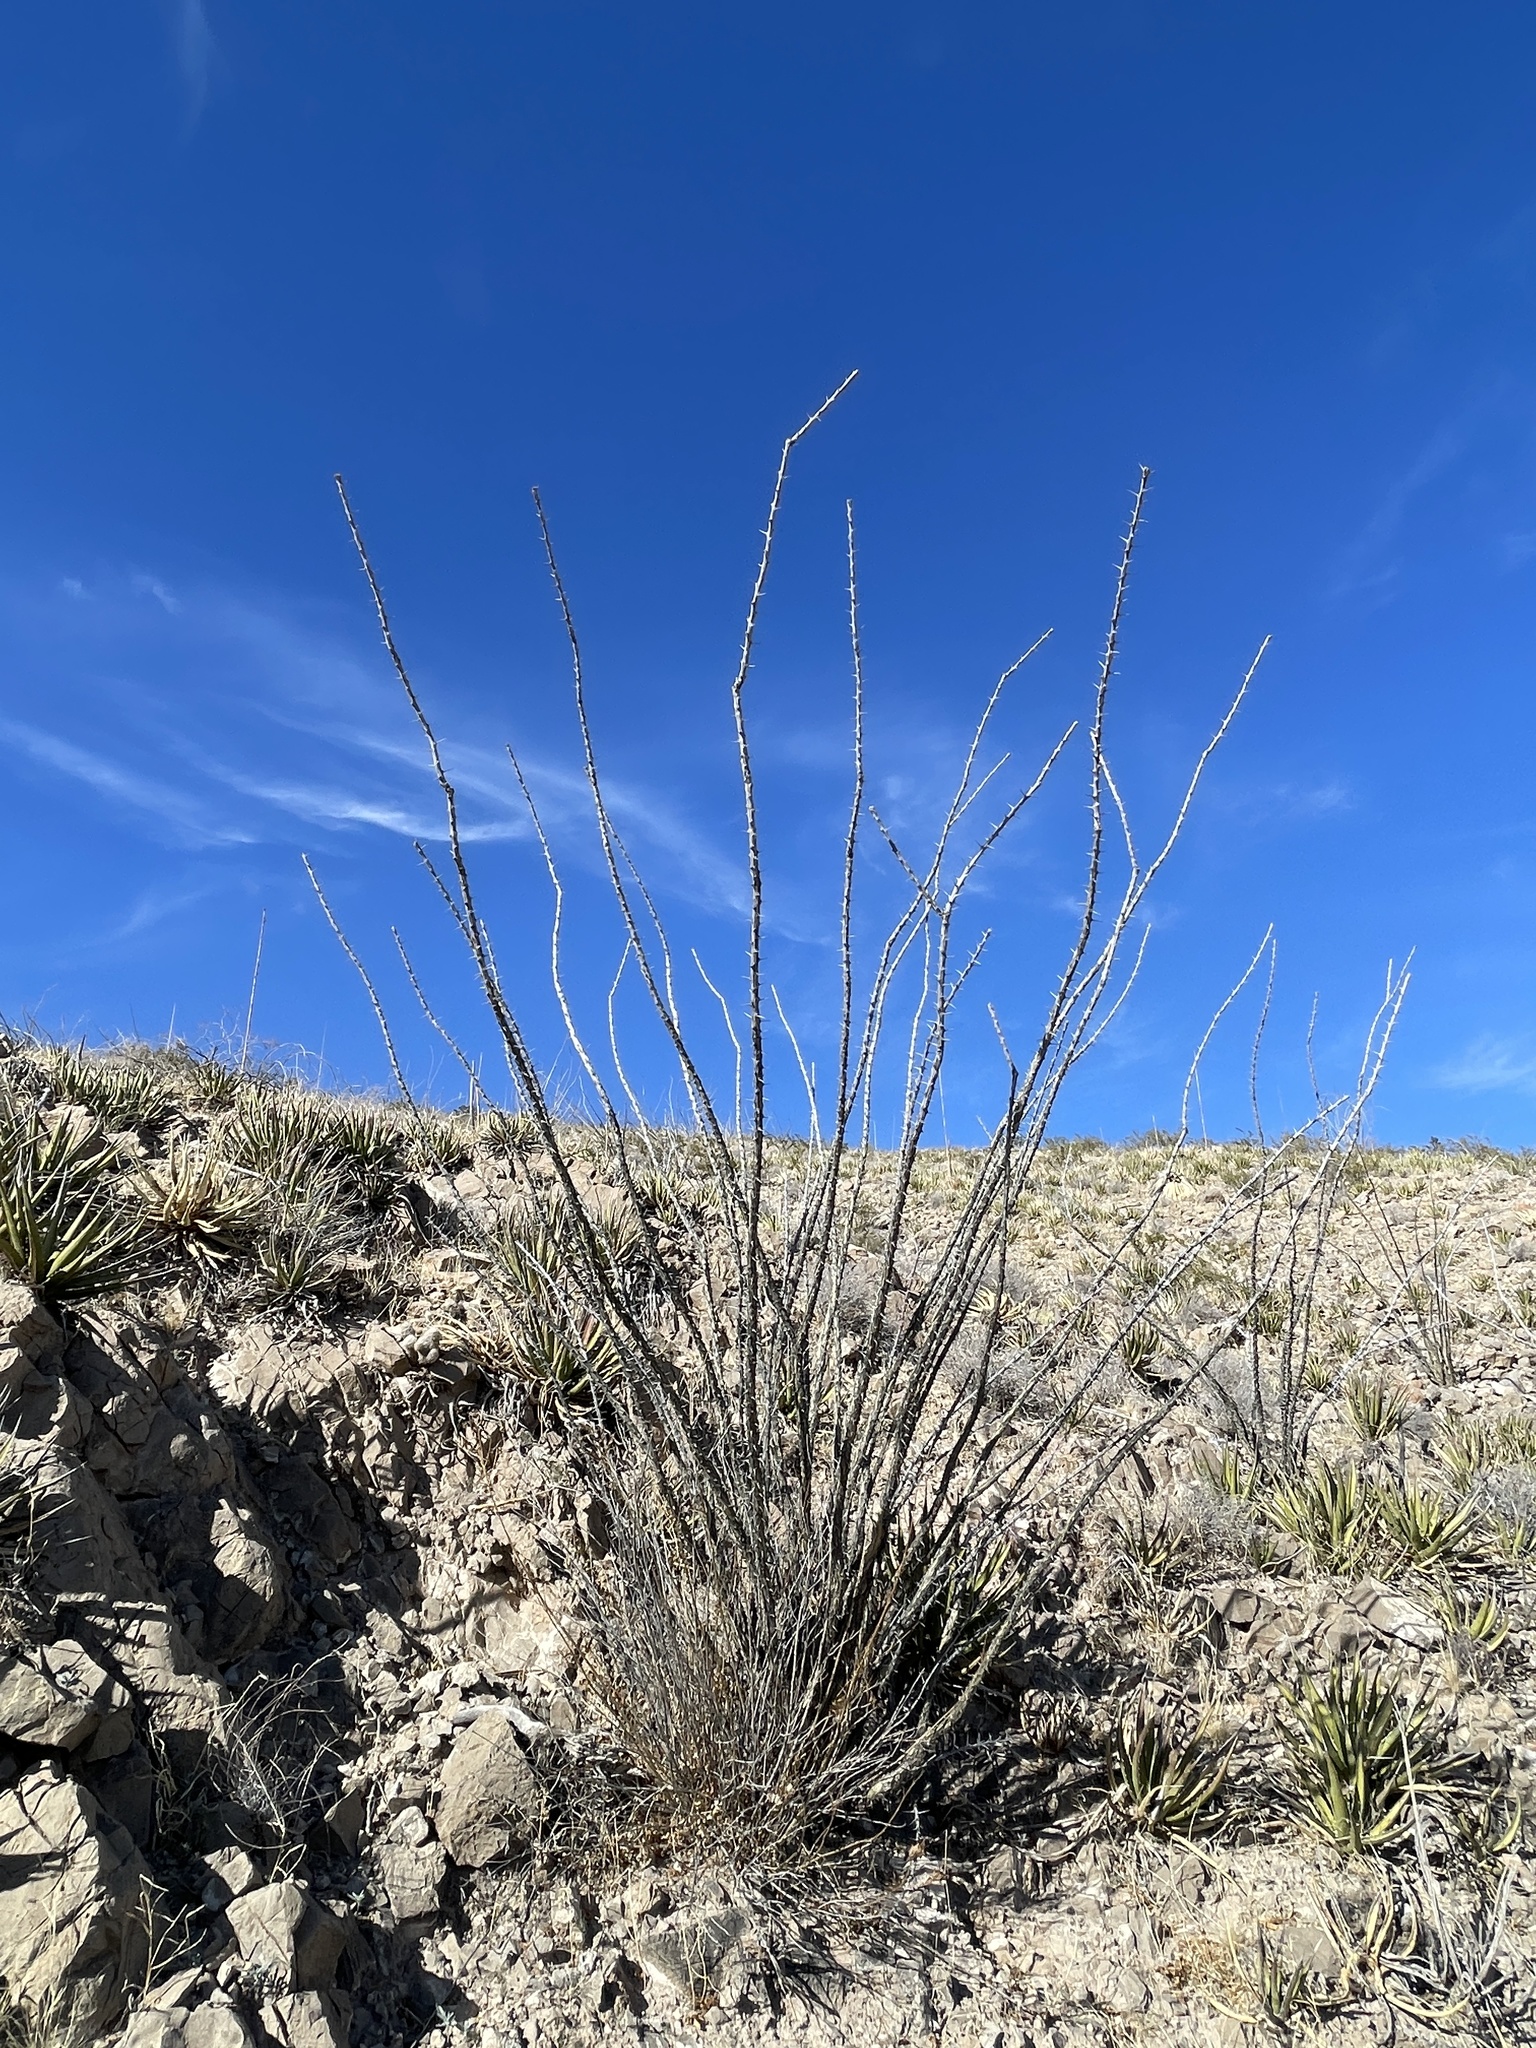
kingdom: Plantae
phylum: Tracheophyta
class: Magnoliopsida
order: Ericales
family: Fouquieriaceae
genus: Fouquieria
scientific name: Fouquieria splendens
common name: Vine-cactus
